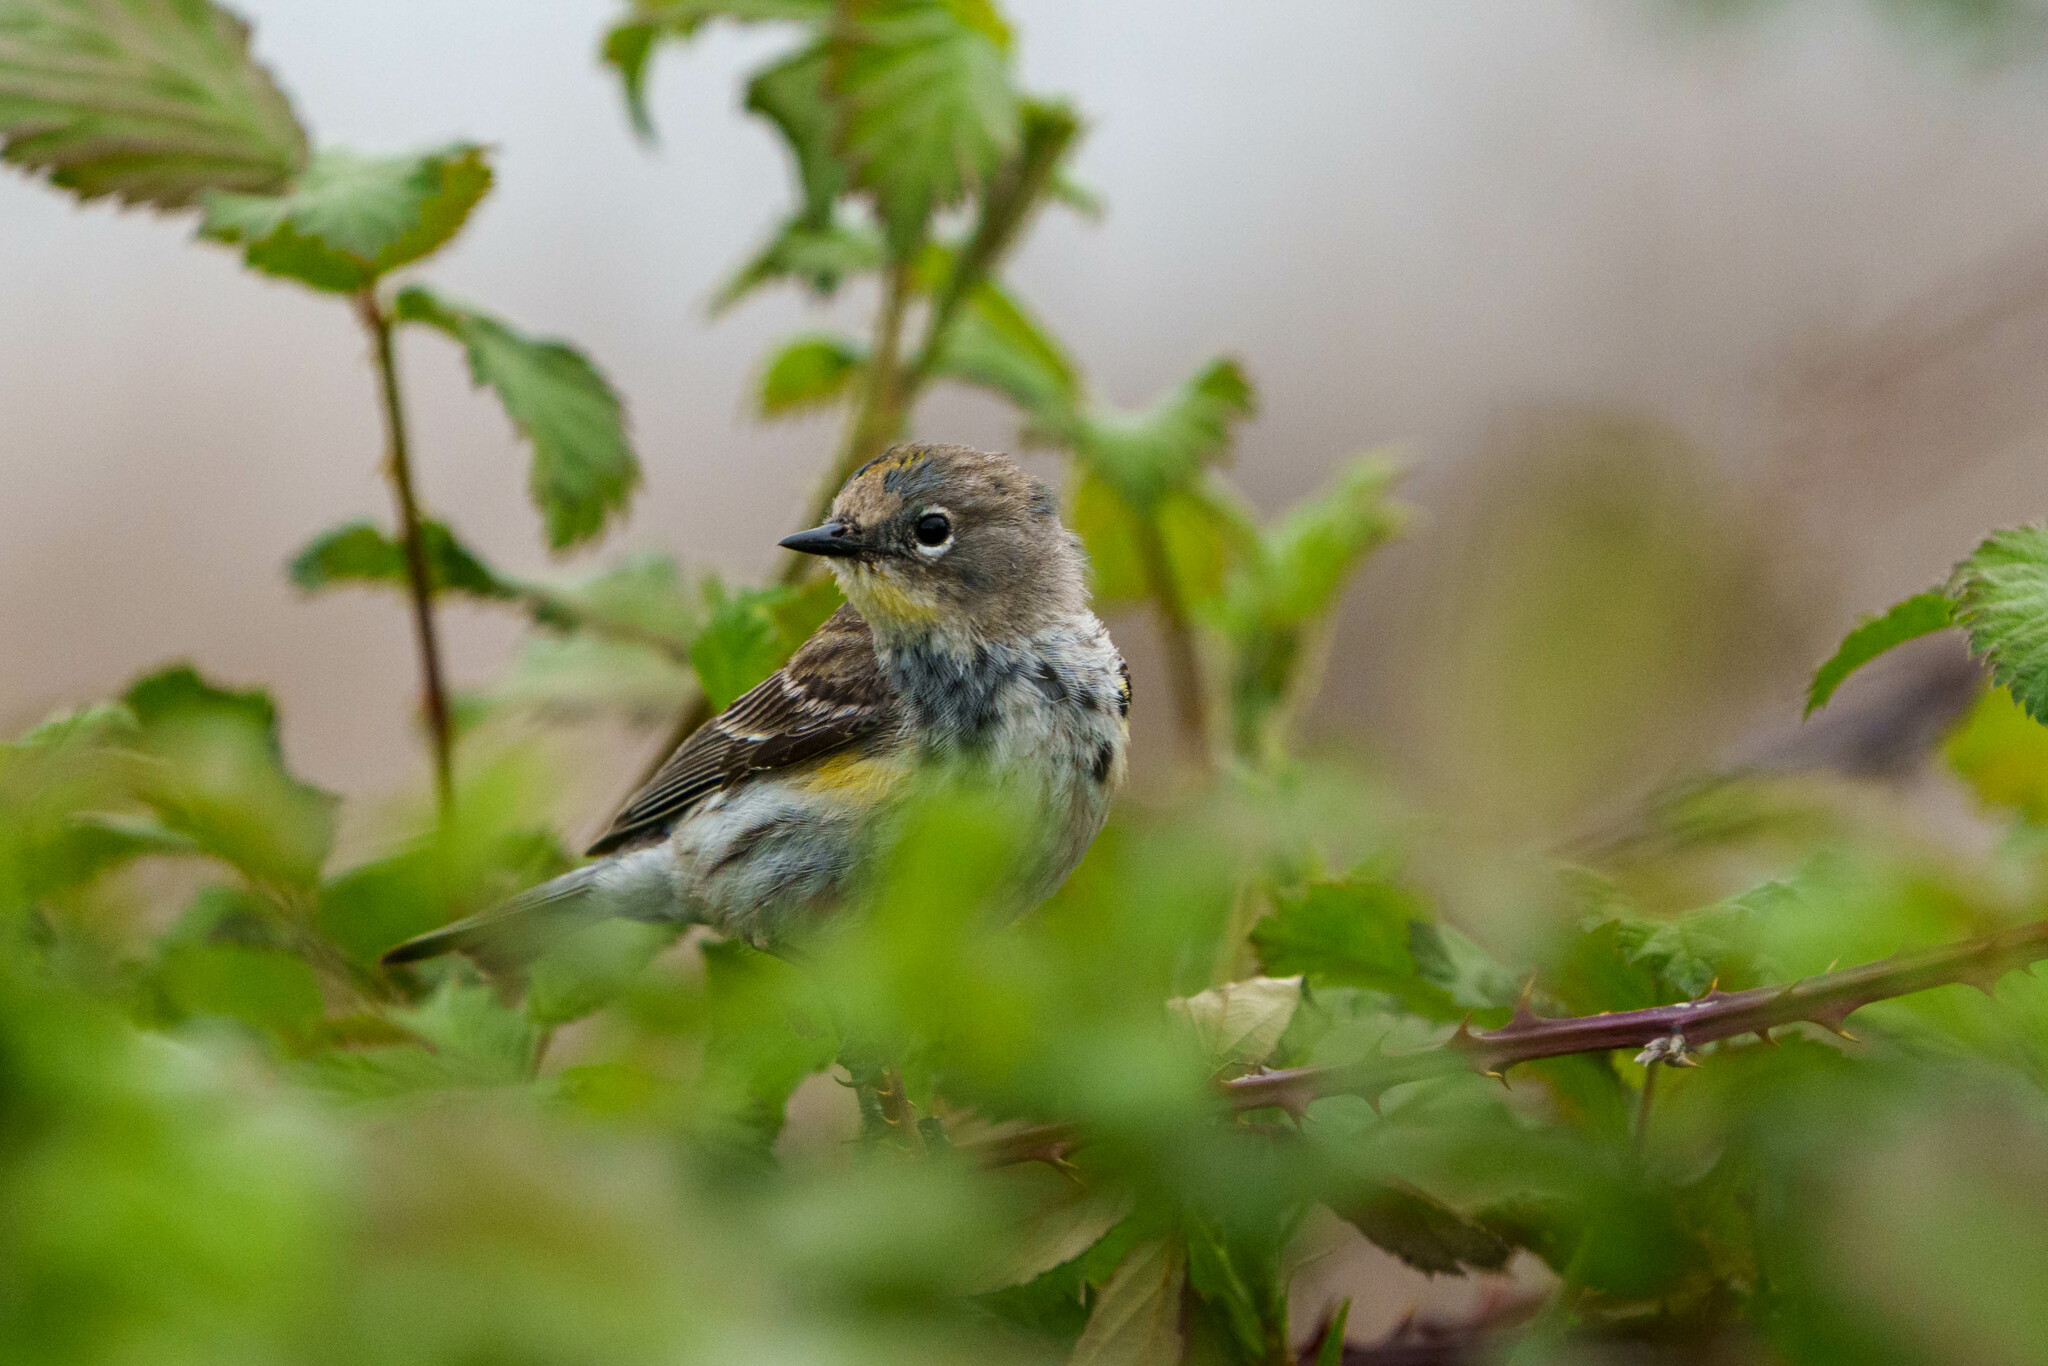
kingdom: Animalia
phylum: Chordata
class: Aves
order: Passeriformes
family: Parulidae
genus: Setophaga
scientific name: Setophaga coronata
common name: Myrtle warbler
